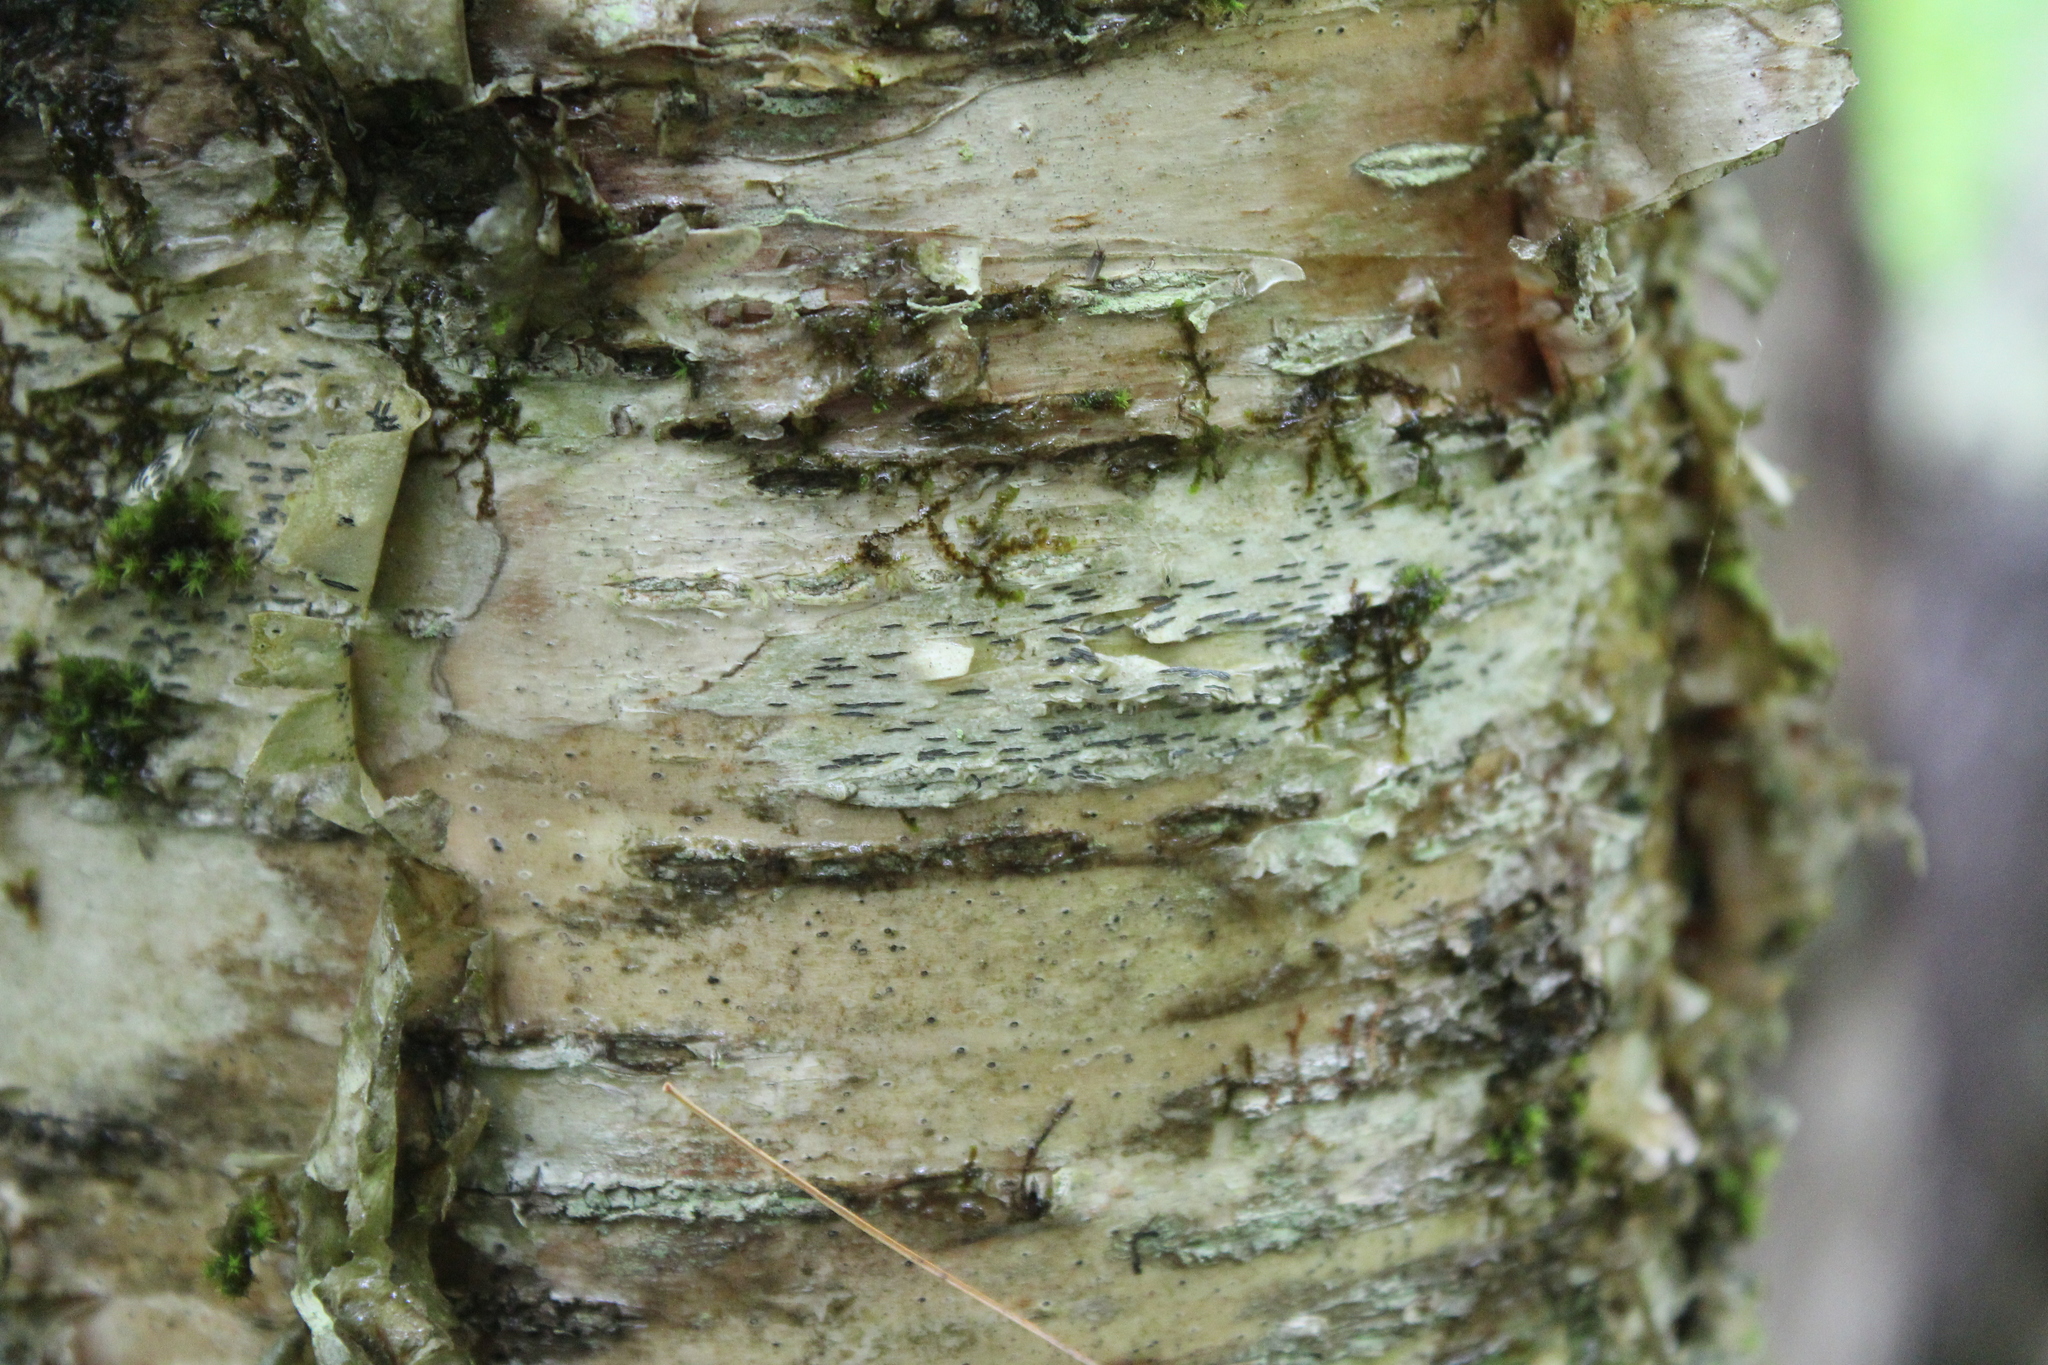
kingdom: Fungi
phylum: Ascomycota
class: Lecanoromycetes
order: Ostropales
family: Graphidaceae
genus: Graphis
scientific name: Graphis scripta
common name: Script lichen
